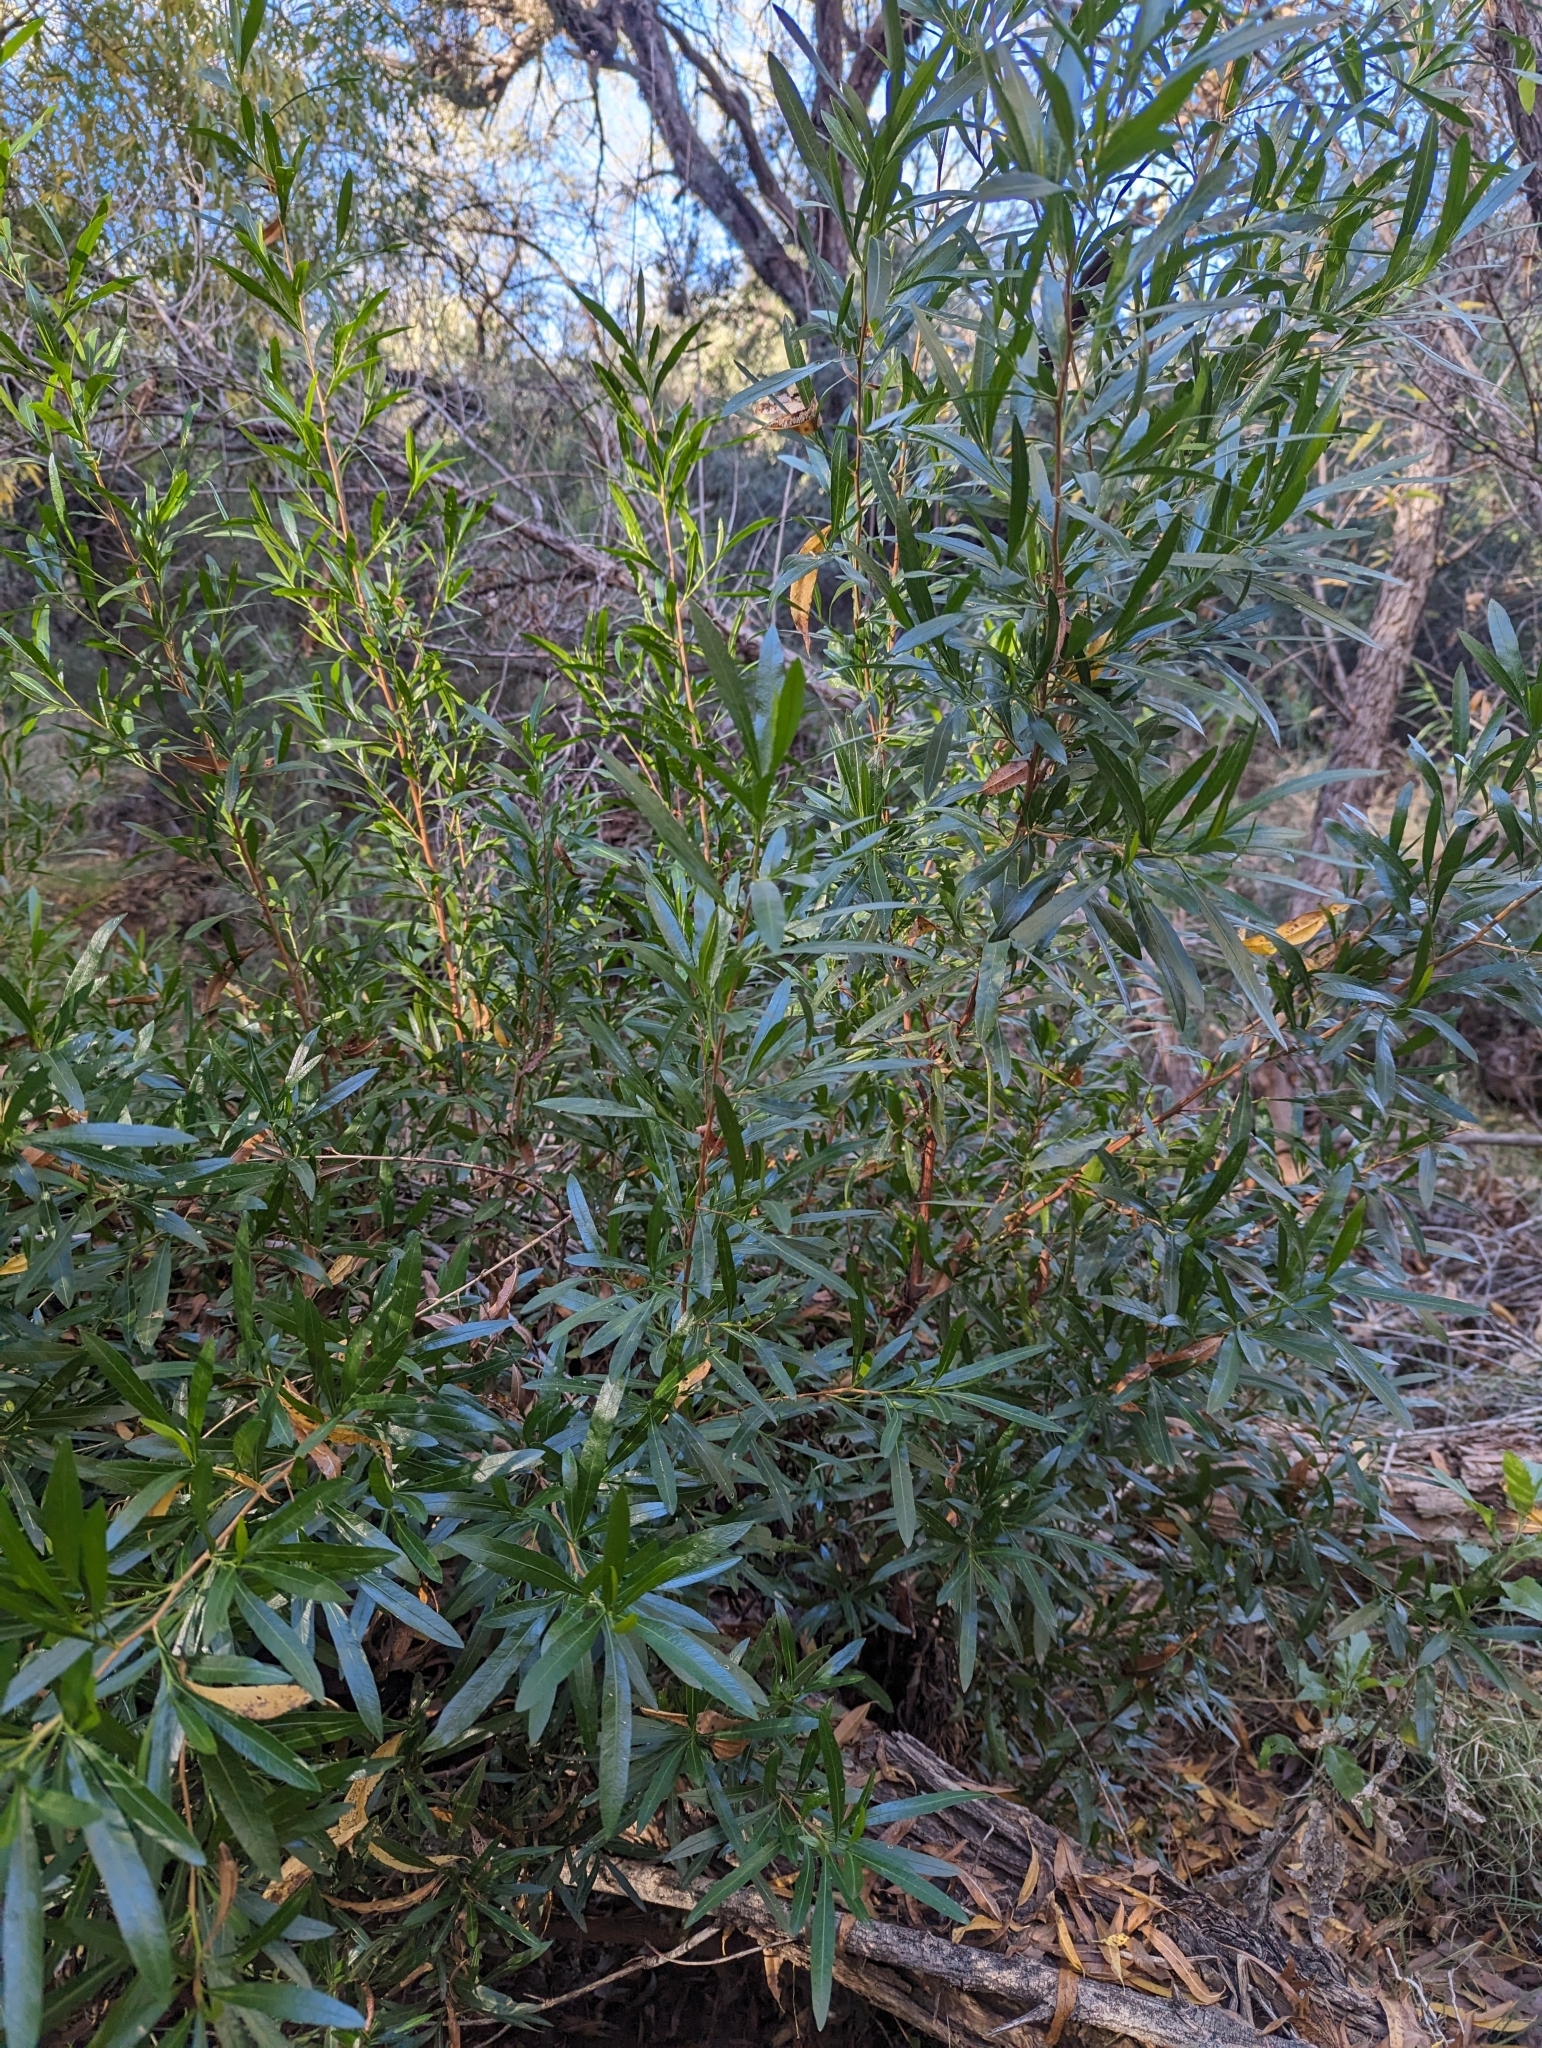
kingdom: Plantae
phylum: Tracheophyta
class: Magnoliopsida
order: Sapindales
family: Sapindaceae
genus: Dodonaea
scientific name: Dodonaea viscosa
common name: Hopbush
